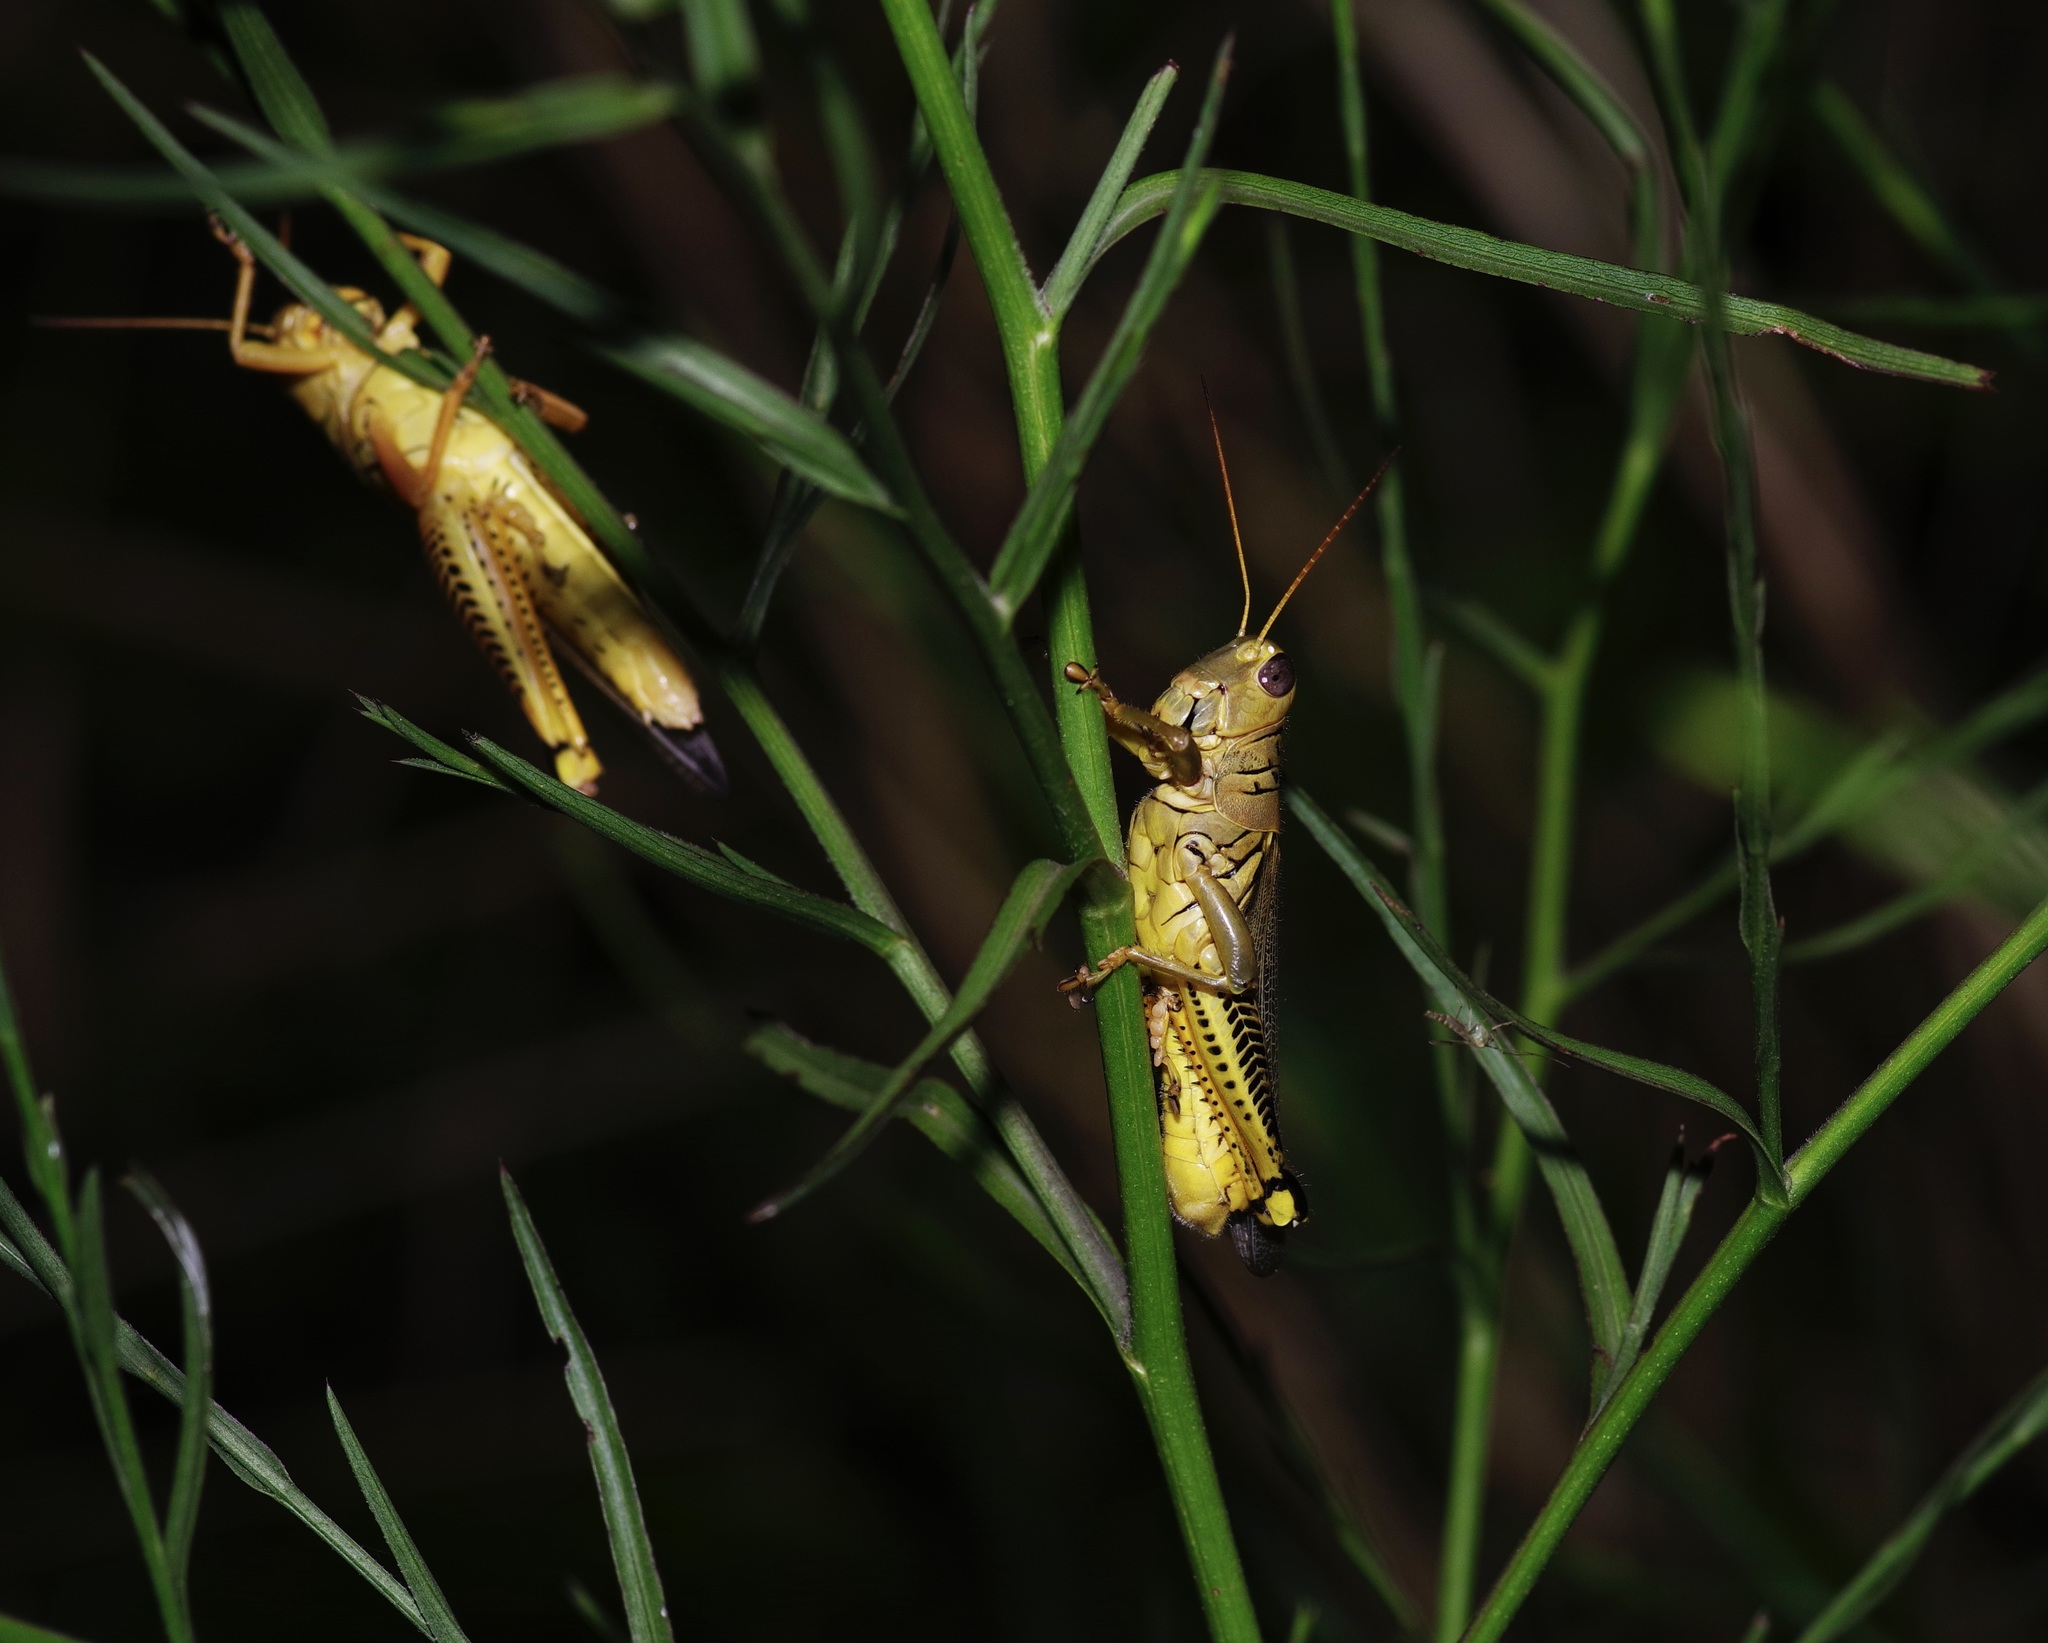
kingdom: Animalia
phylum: Arthropoda
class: Insecta
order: Orthoptera
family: Acrididae
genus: Melanoplus
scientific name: Melanoplus differentialis
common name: Differential grasshopper
